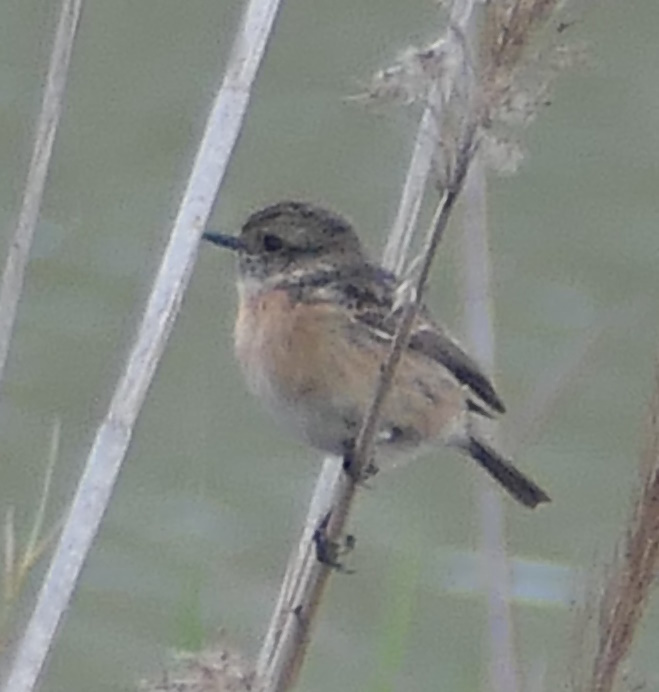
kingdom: Animalia
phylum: Chordata
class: Aves
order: Passeriformes
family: Muscicapidae
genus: Saxicola
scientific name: Saxicola rubicola
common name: European stonechat
